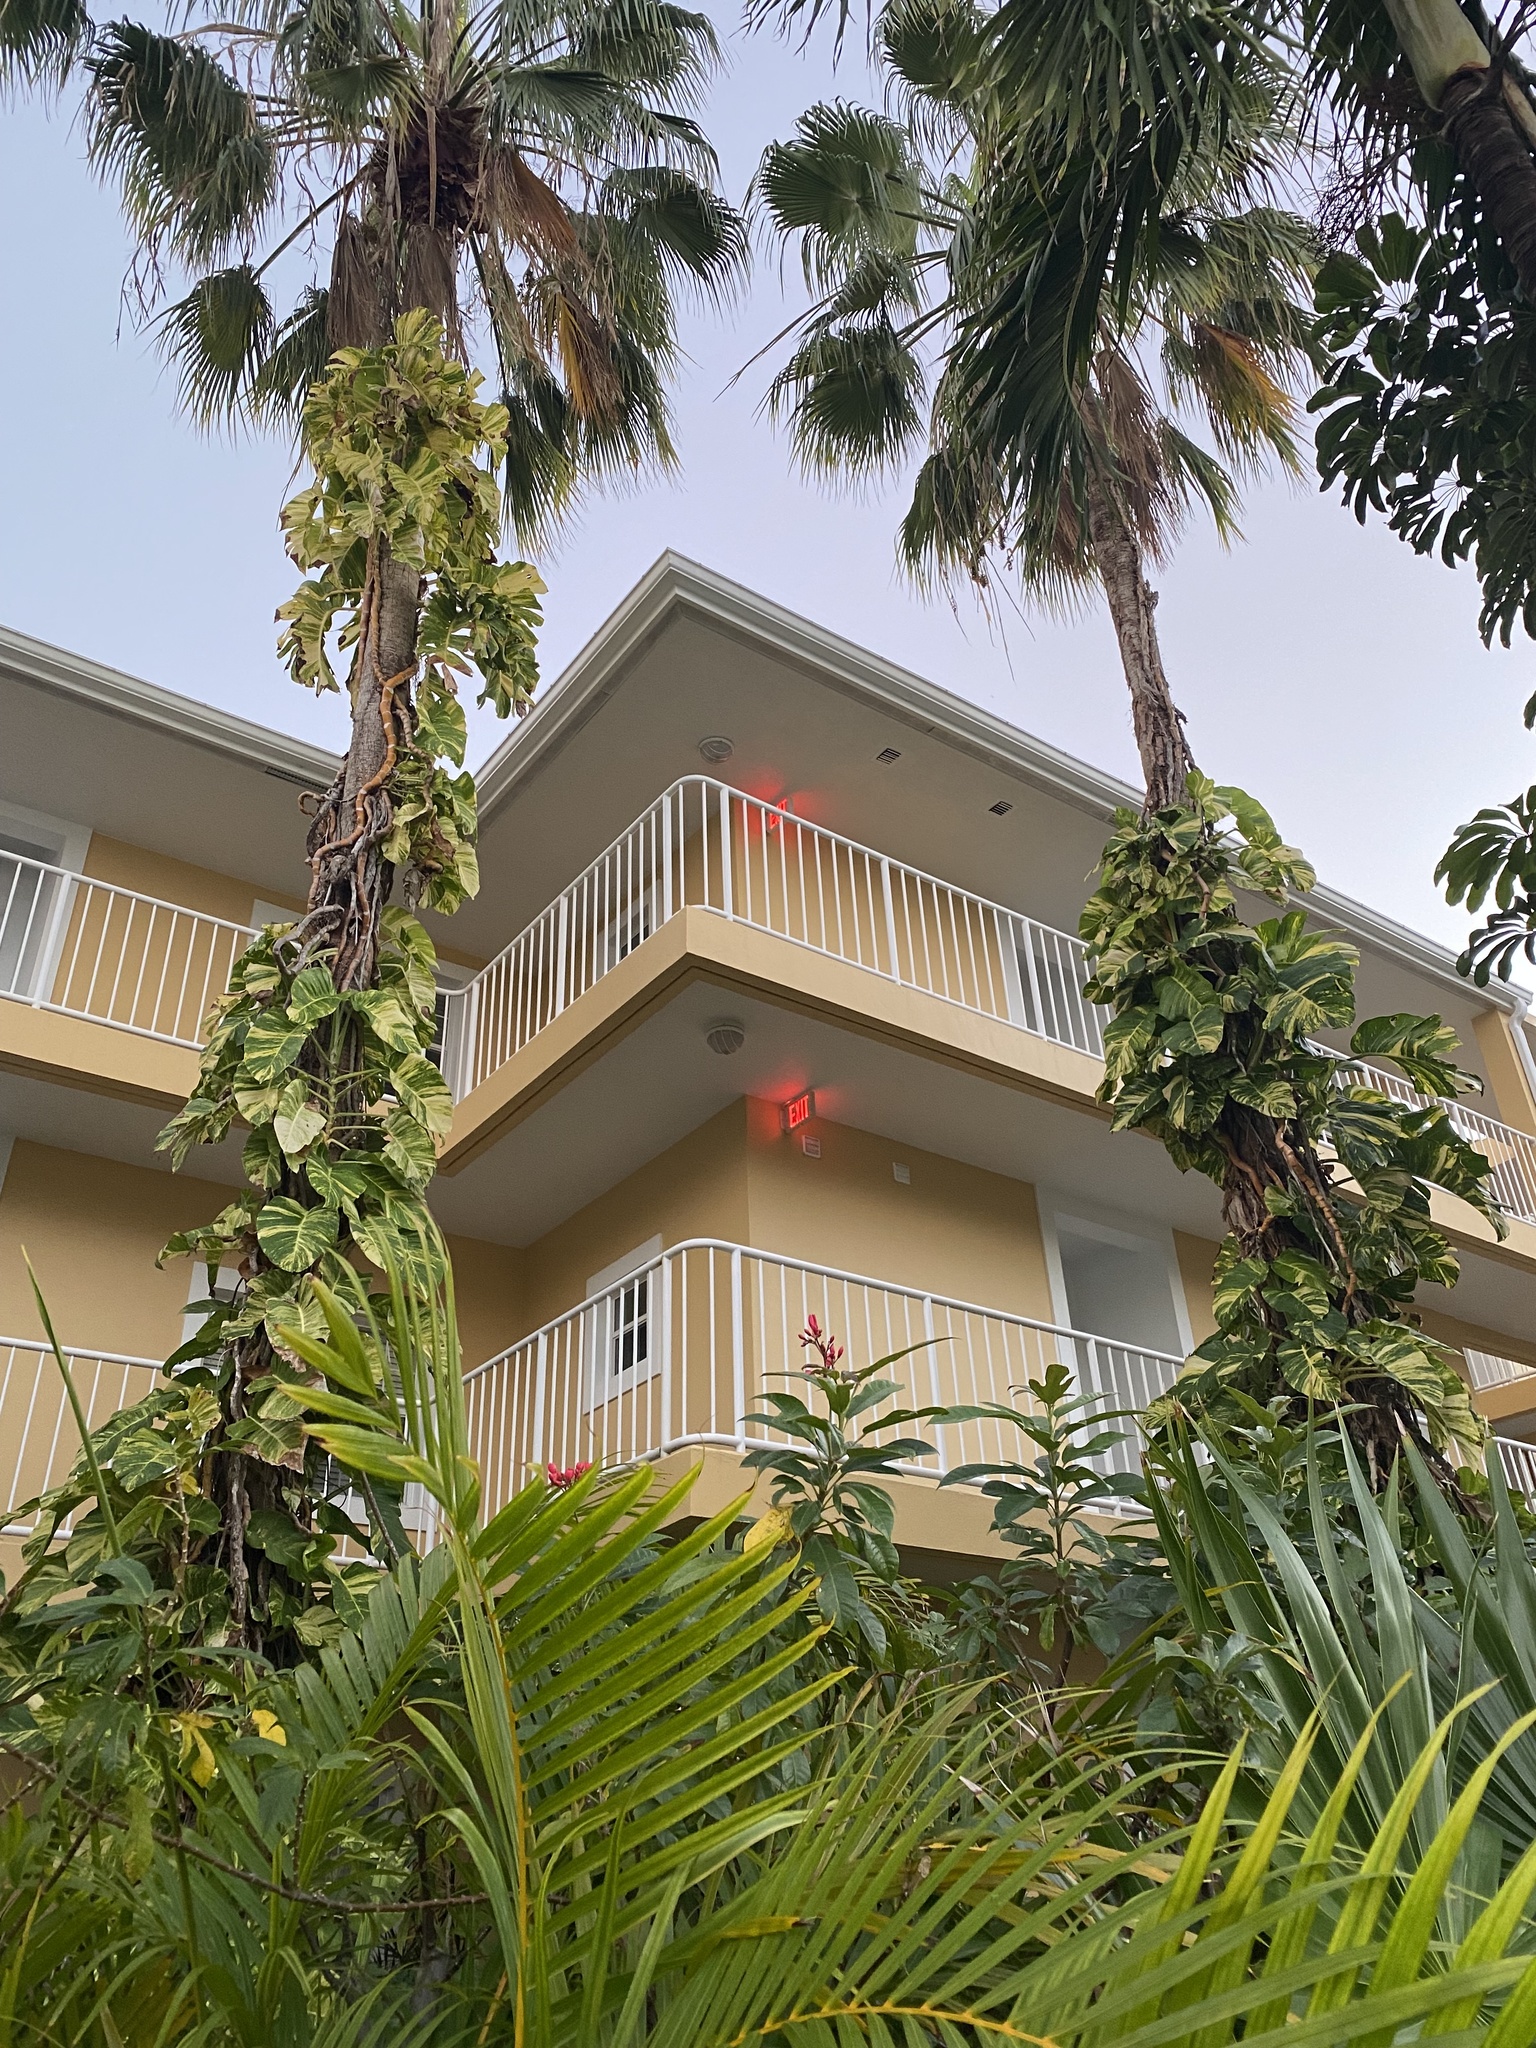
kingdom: Plantae
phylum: Tracheophyta
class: Liliopsida
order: Alismatales
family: Araceae
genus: Epipremnum
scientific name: Epipremnum aureum
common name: Golden hunter's-robe
